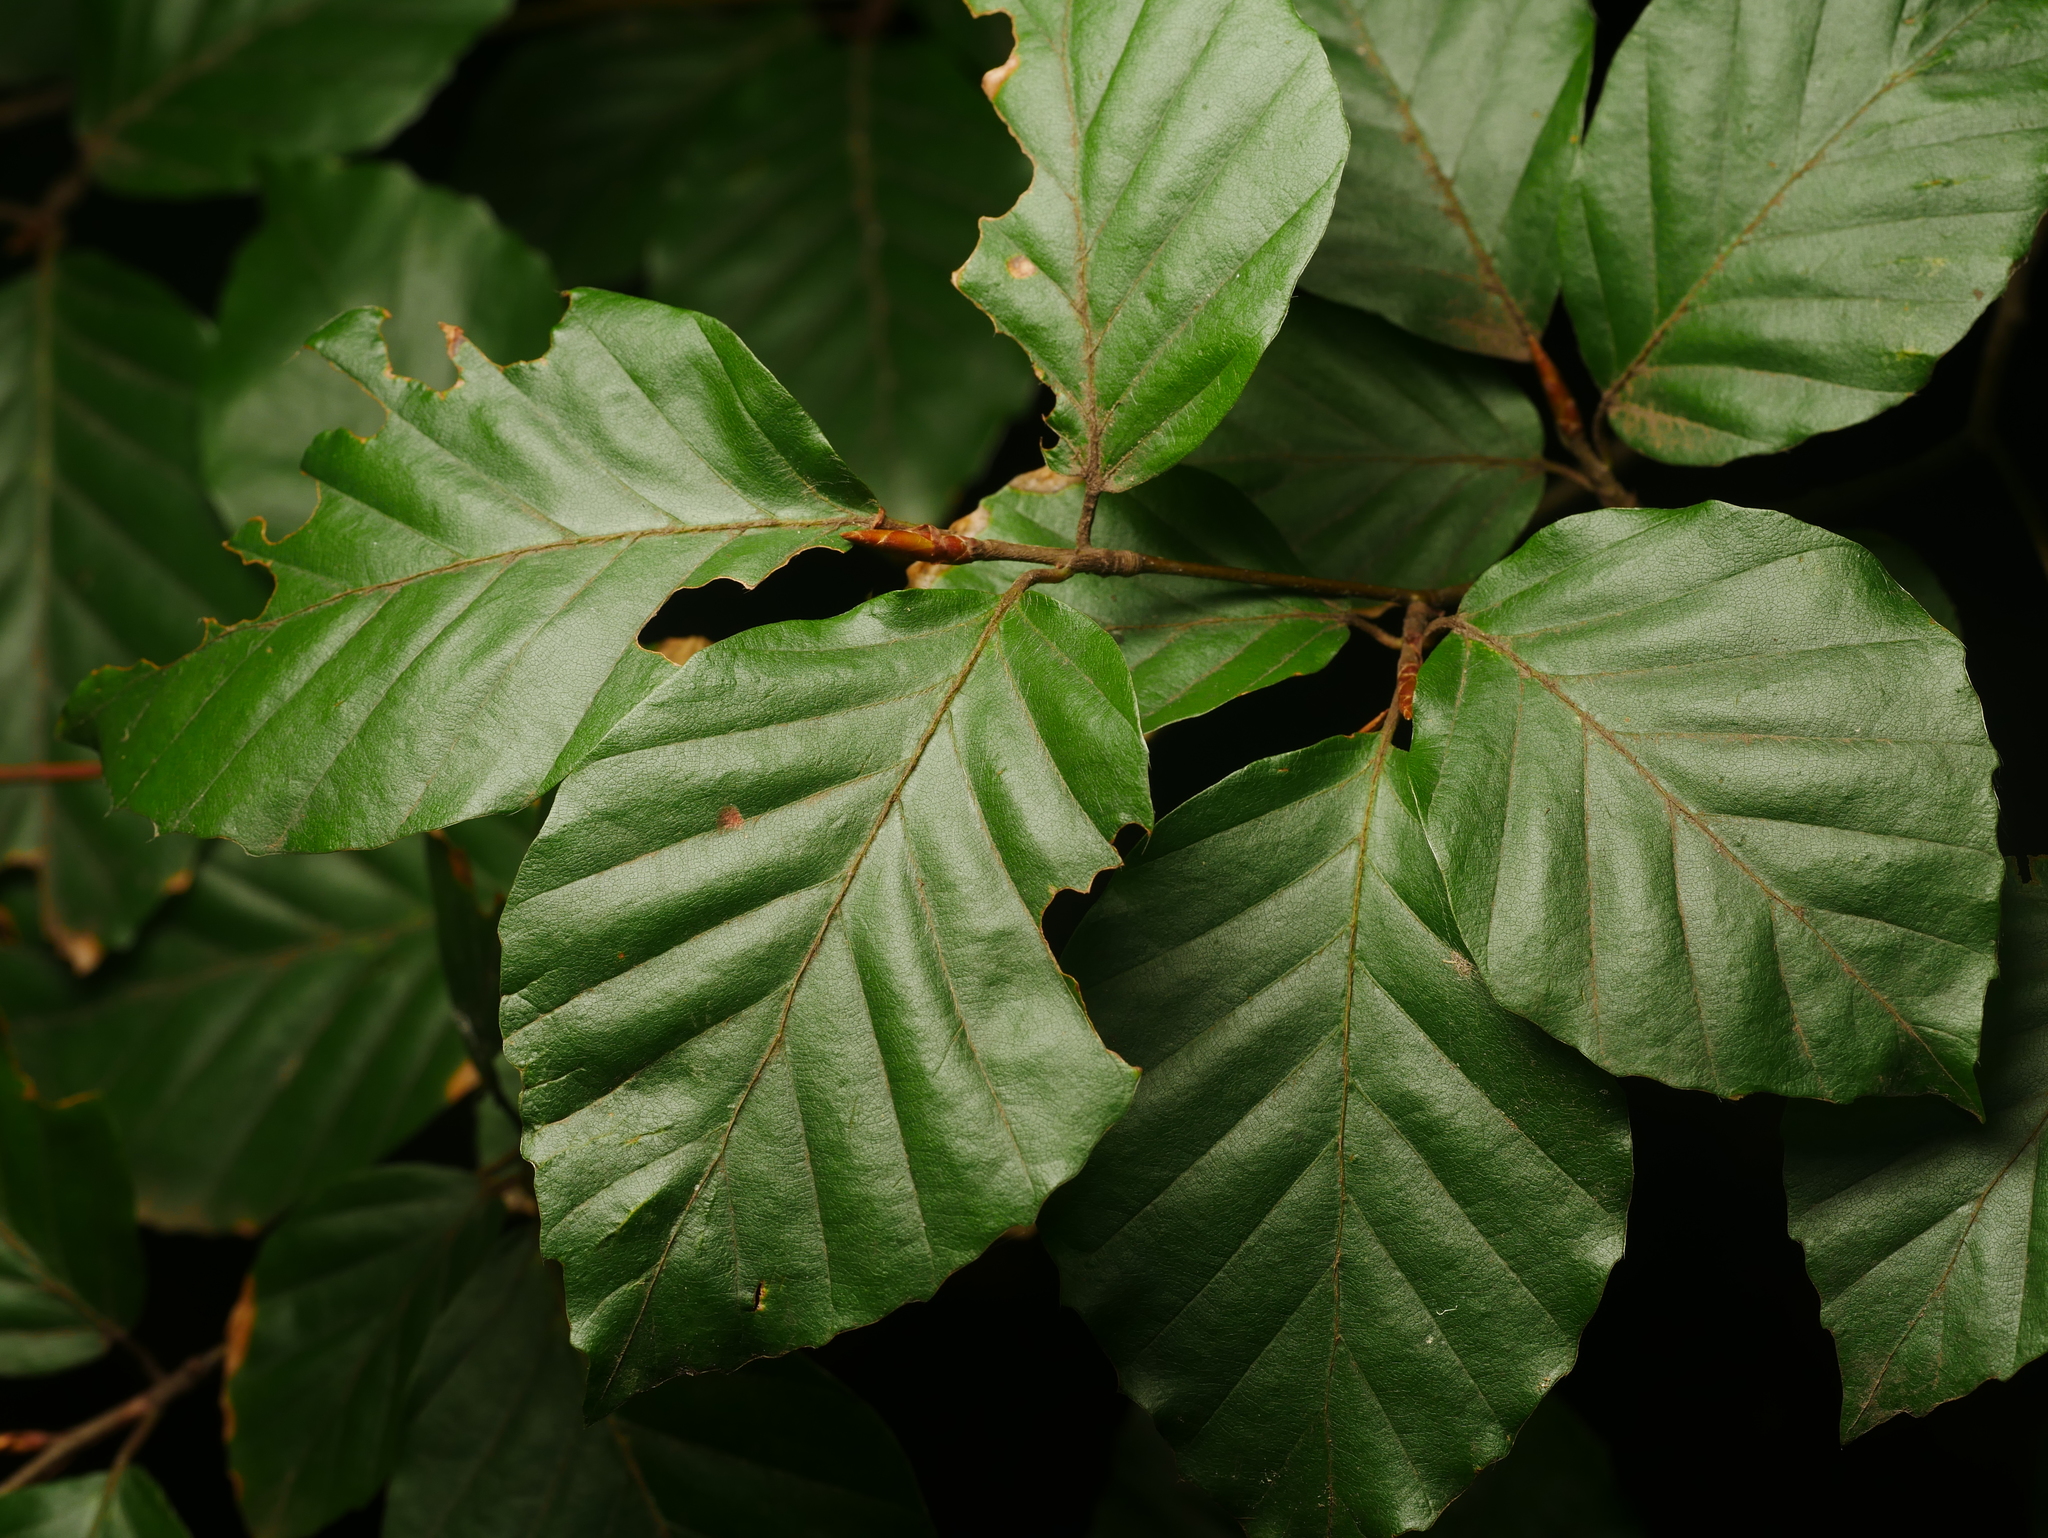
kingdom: Plantae
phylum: Tracheophyta
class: Magnoliopsida
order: Fagales
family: Fagaceae
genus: Fagus
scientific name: Fagus sylvatica
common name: Beech
